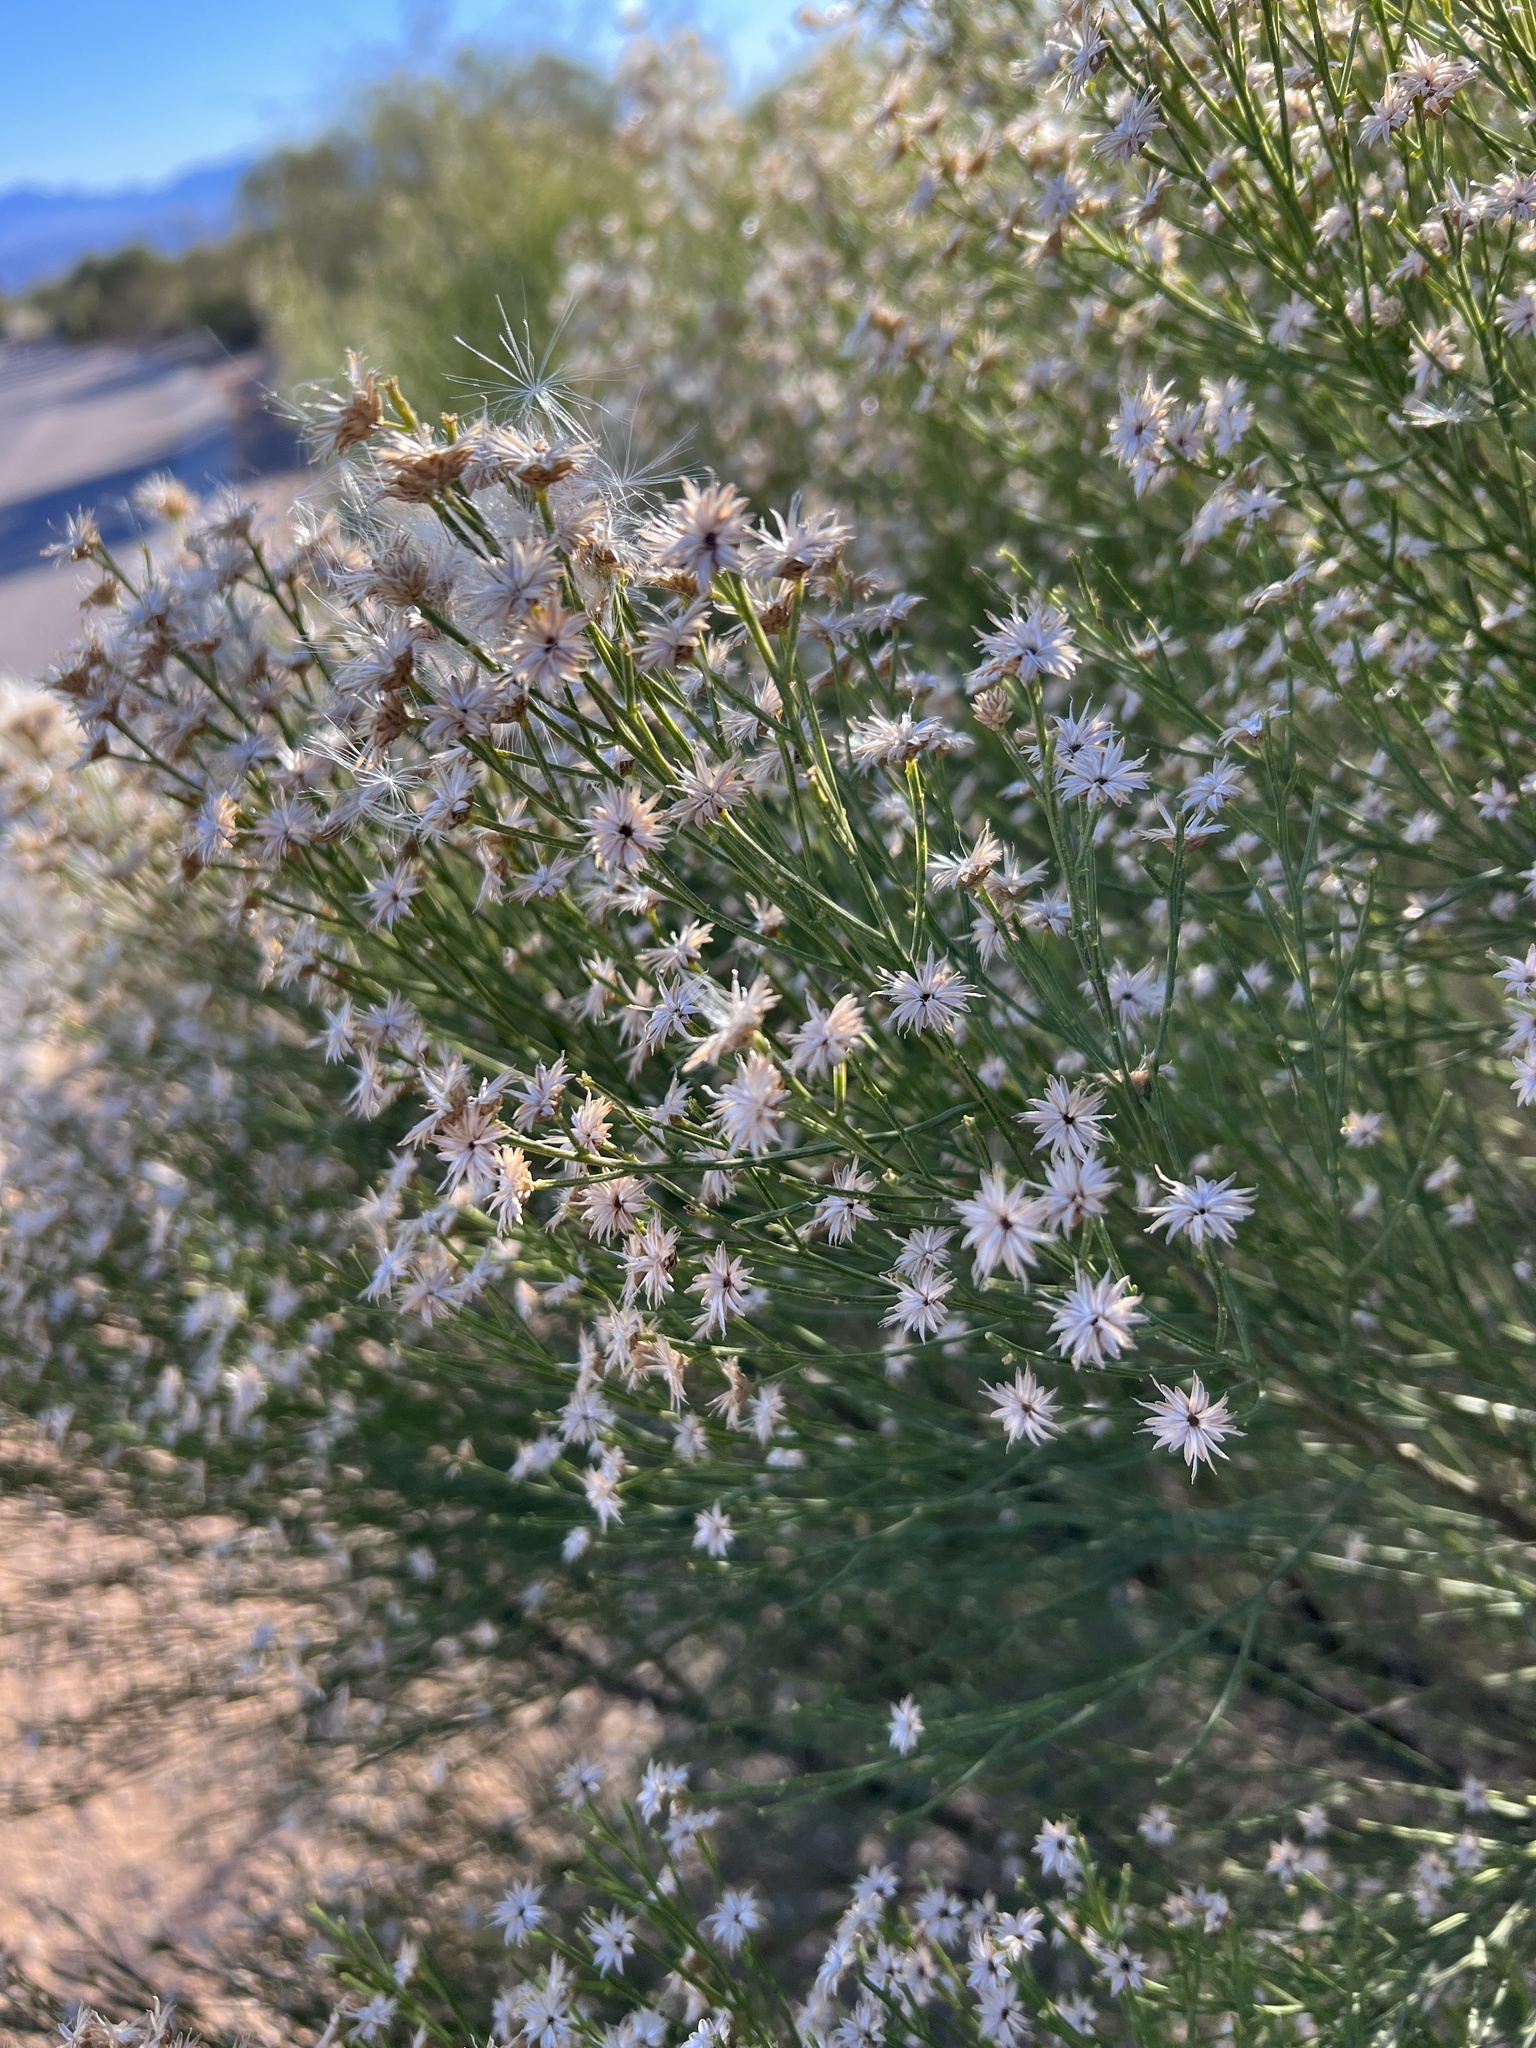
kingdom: Plantae
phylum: Tracheophyta
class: Magnoliopsida
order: Asterales
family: Asteraceae
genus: Baccharis
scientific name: Baccharis sarothroides
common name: Desert-broom
